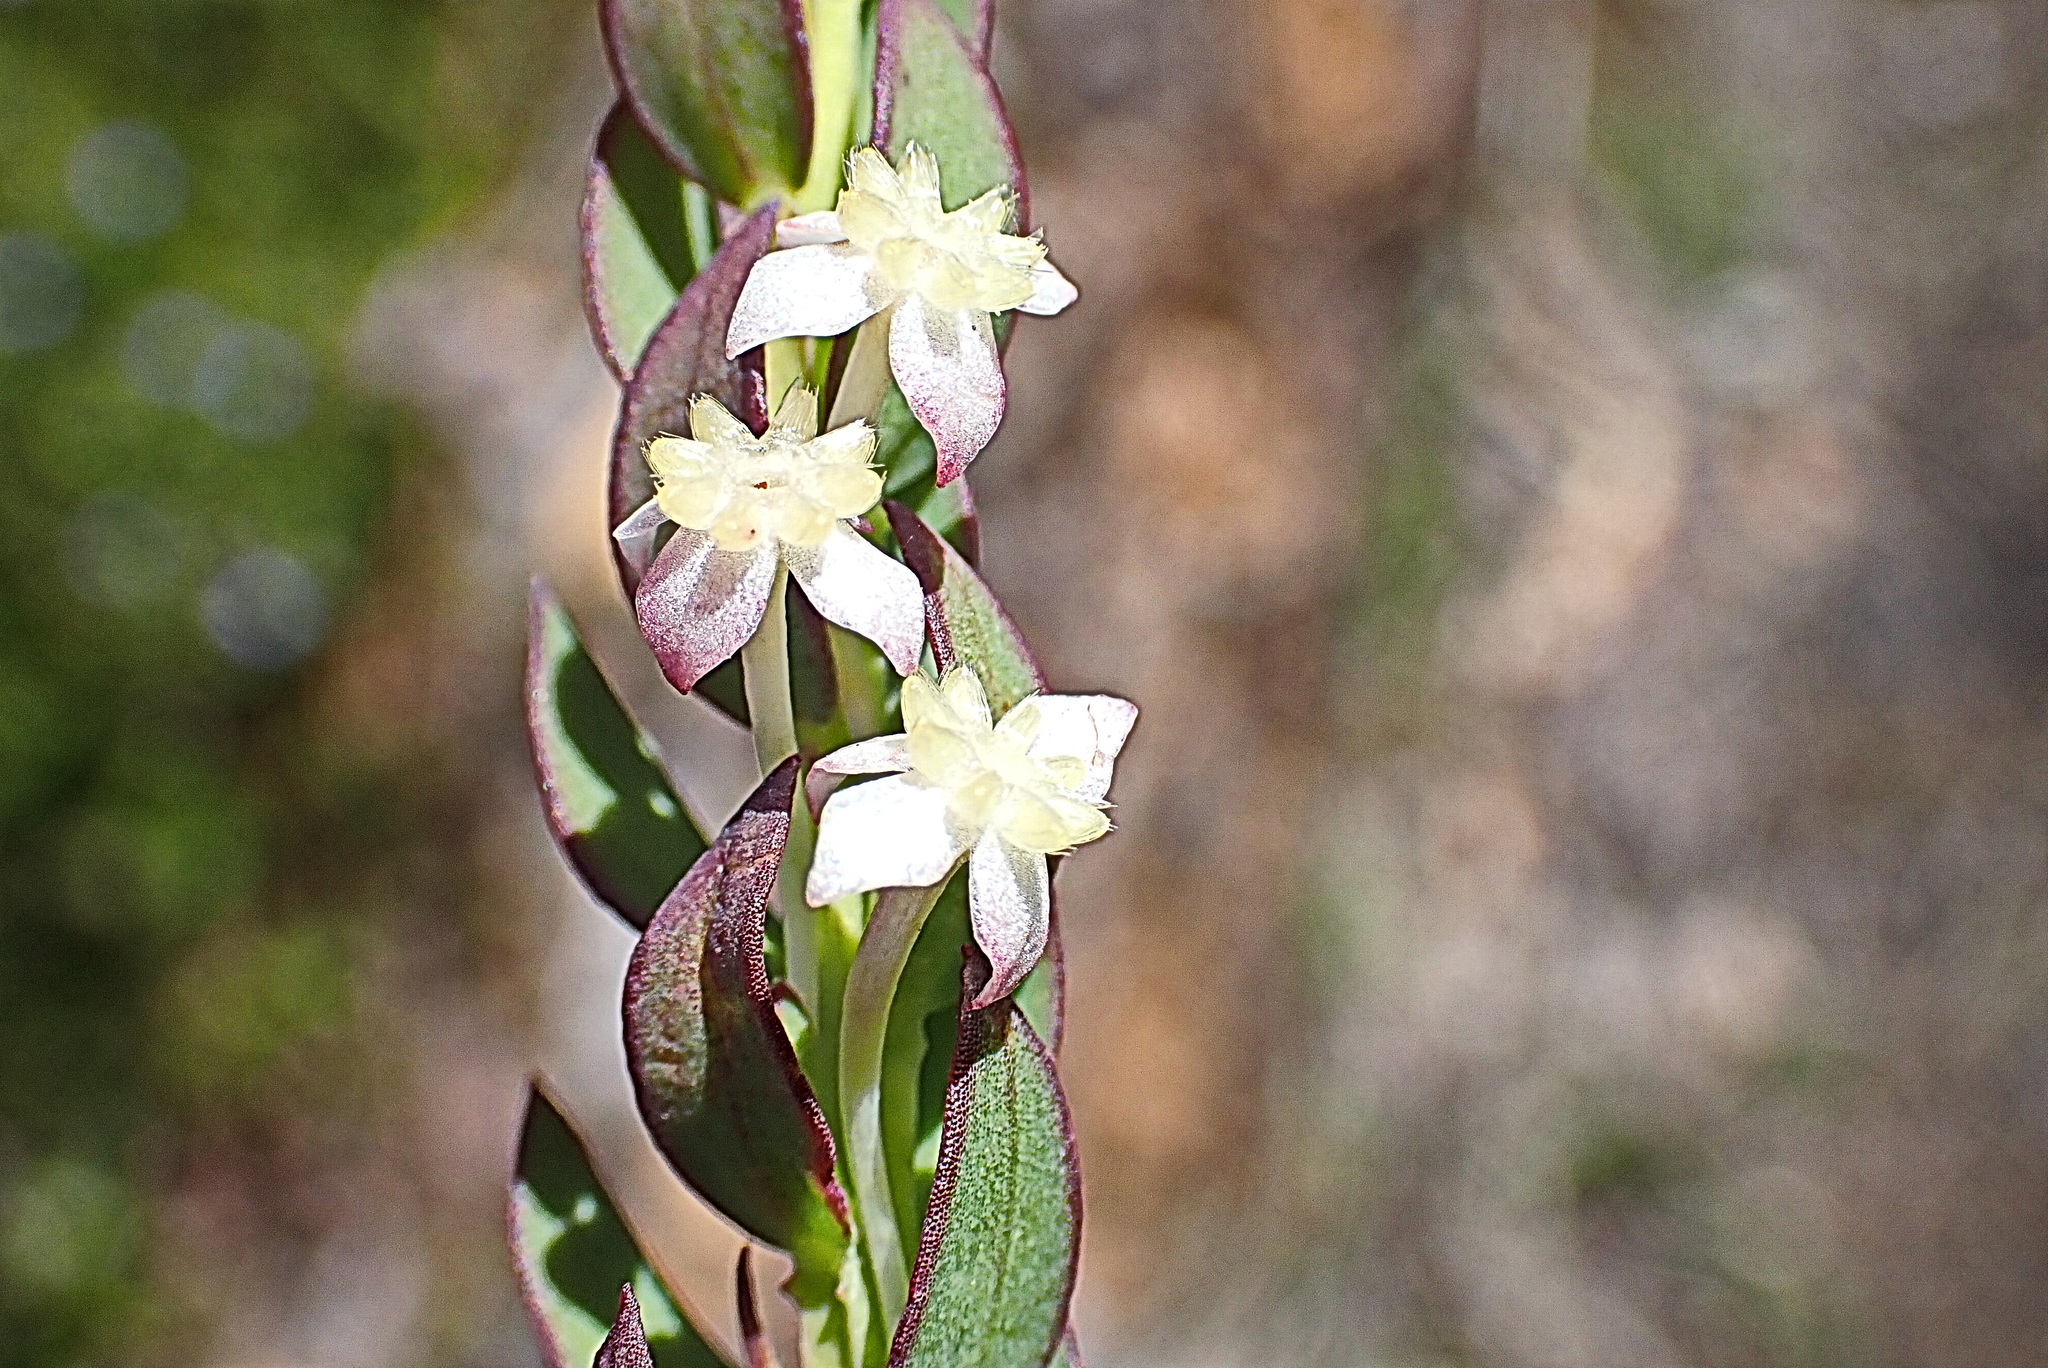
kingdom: Plantae
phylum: Tracheophyta
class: Magnoliopsida
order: Malvales
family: Thymelaeaceae
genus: Struthiola
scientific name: Struthiola ciliata
